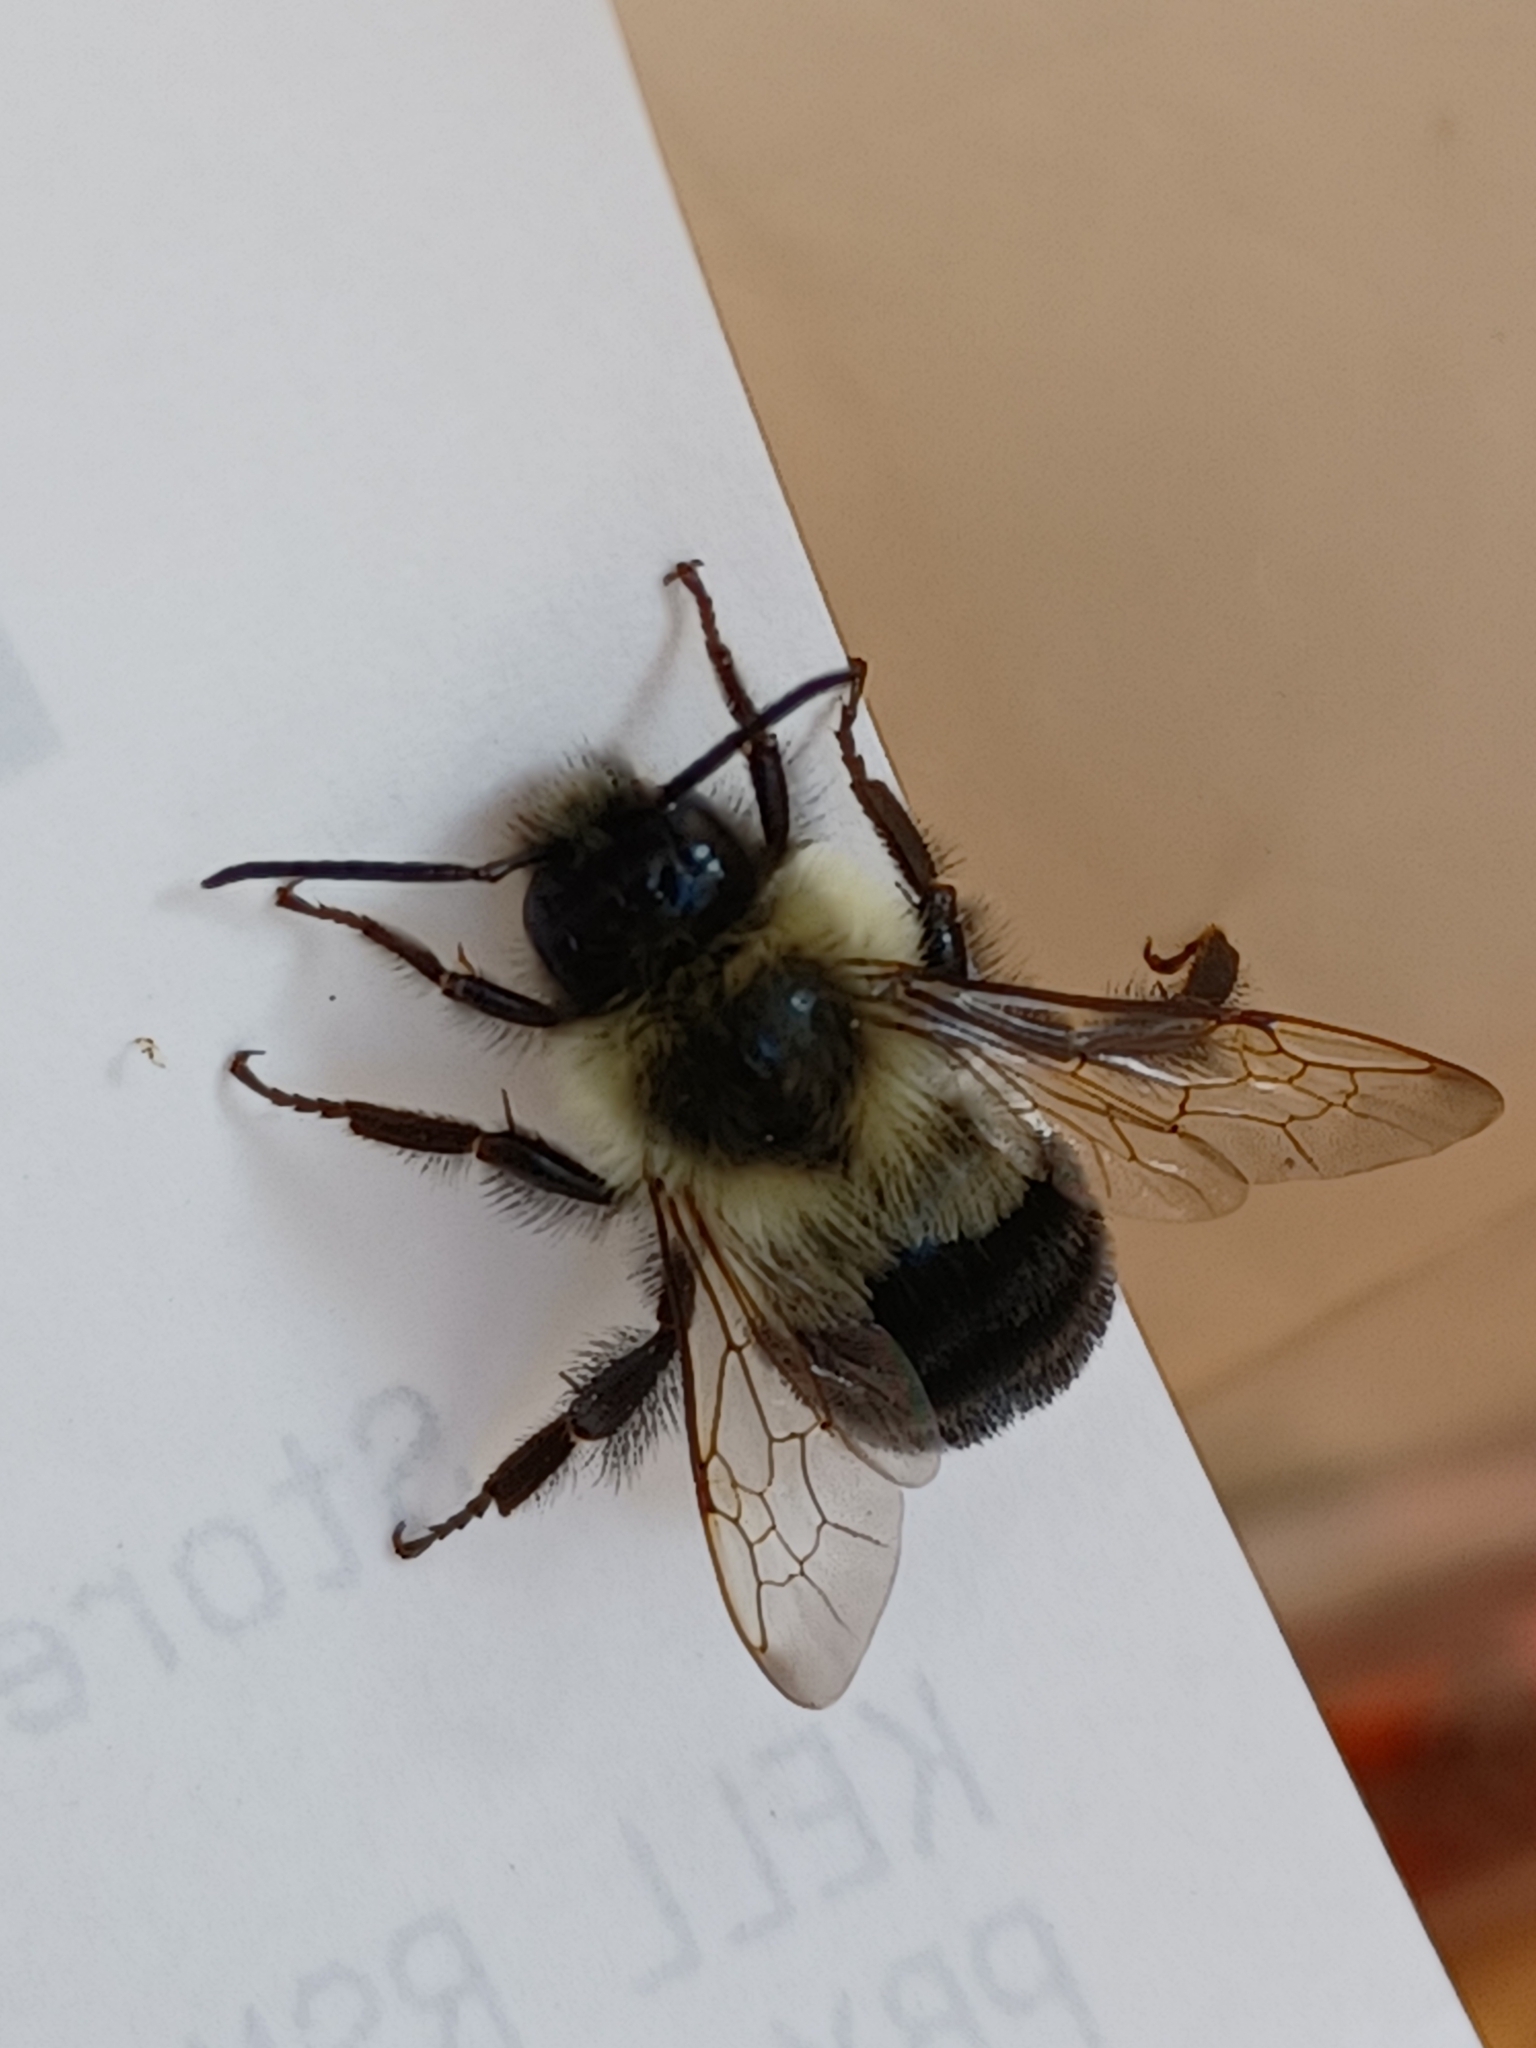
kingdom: Animalia
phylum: Arthropoda
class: Insecta
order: Hymenoptera
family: Apidae
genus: Bombus
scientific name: Bombus impatiens
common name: Common eastern bumble bee
